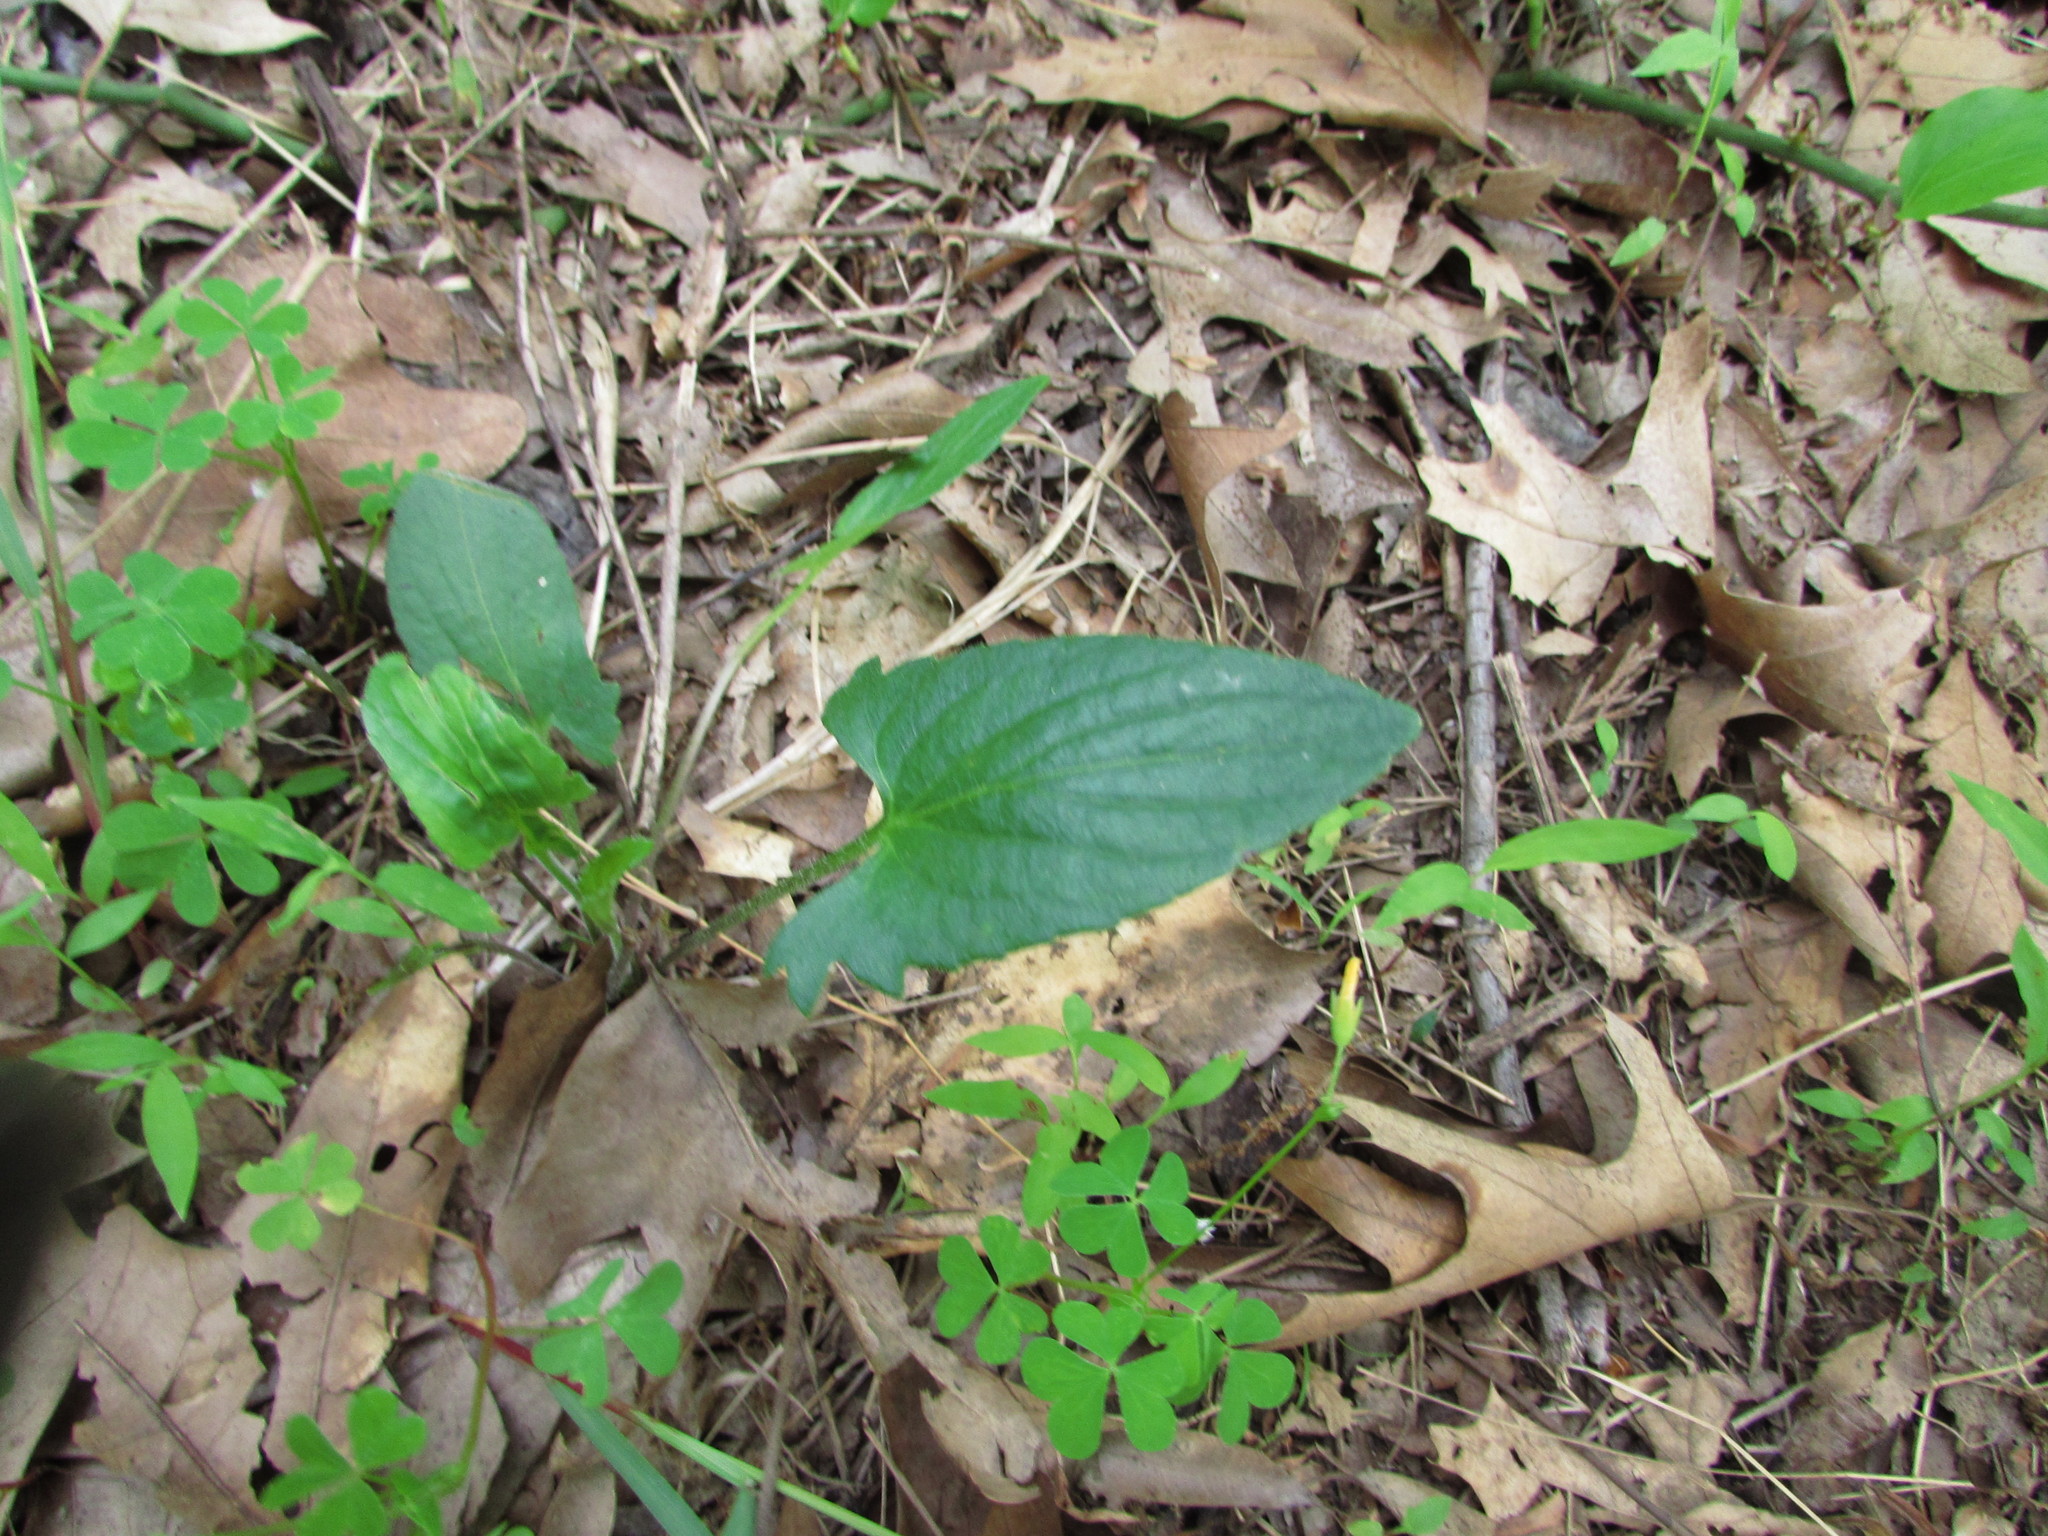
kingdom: Plantae
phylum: Tracheophyta
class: Magnoliopsida
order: Malpighiales
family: Violaceae
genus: Viola
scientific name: Viola sagittata
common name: Arrowhead violet
